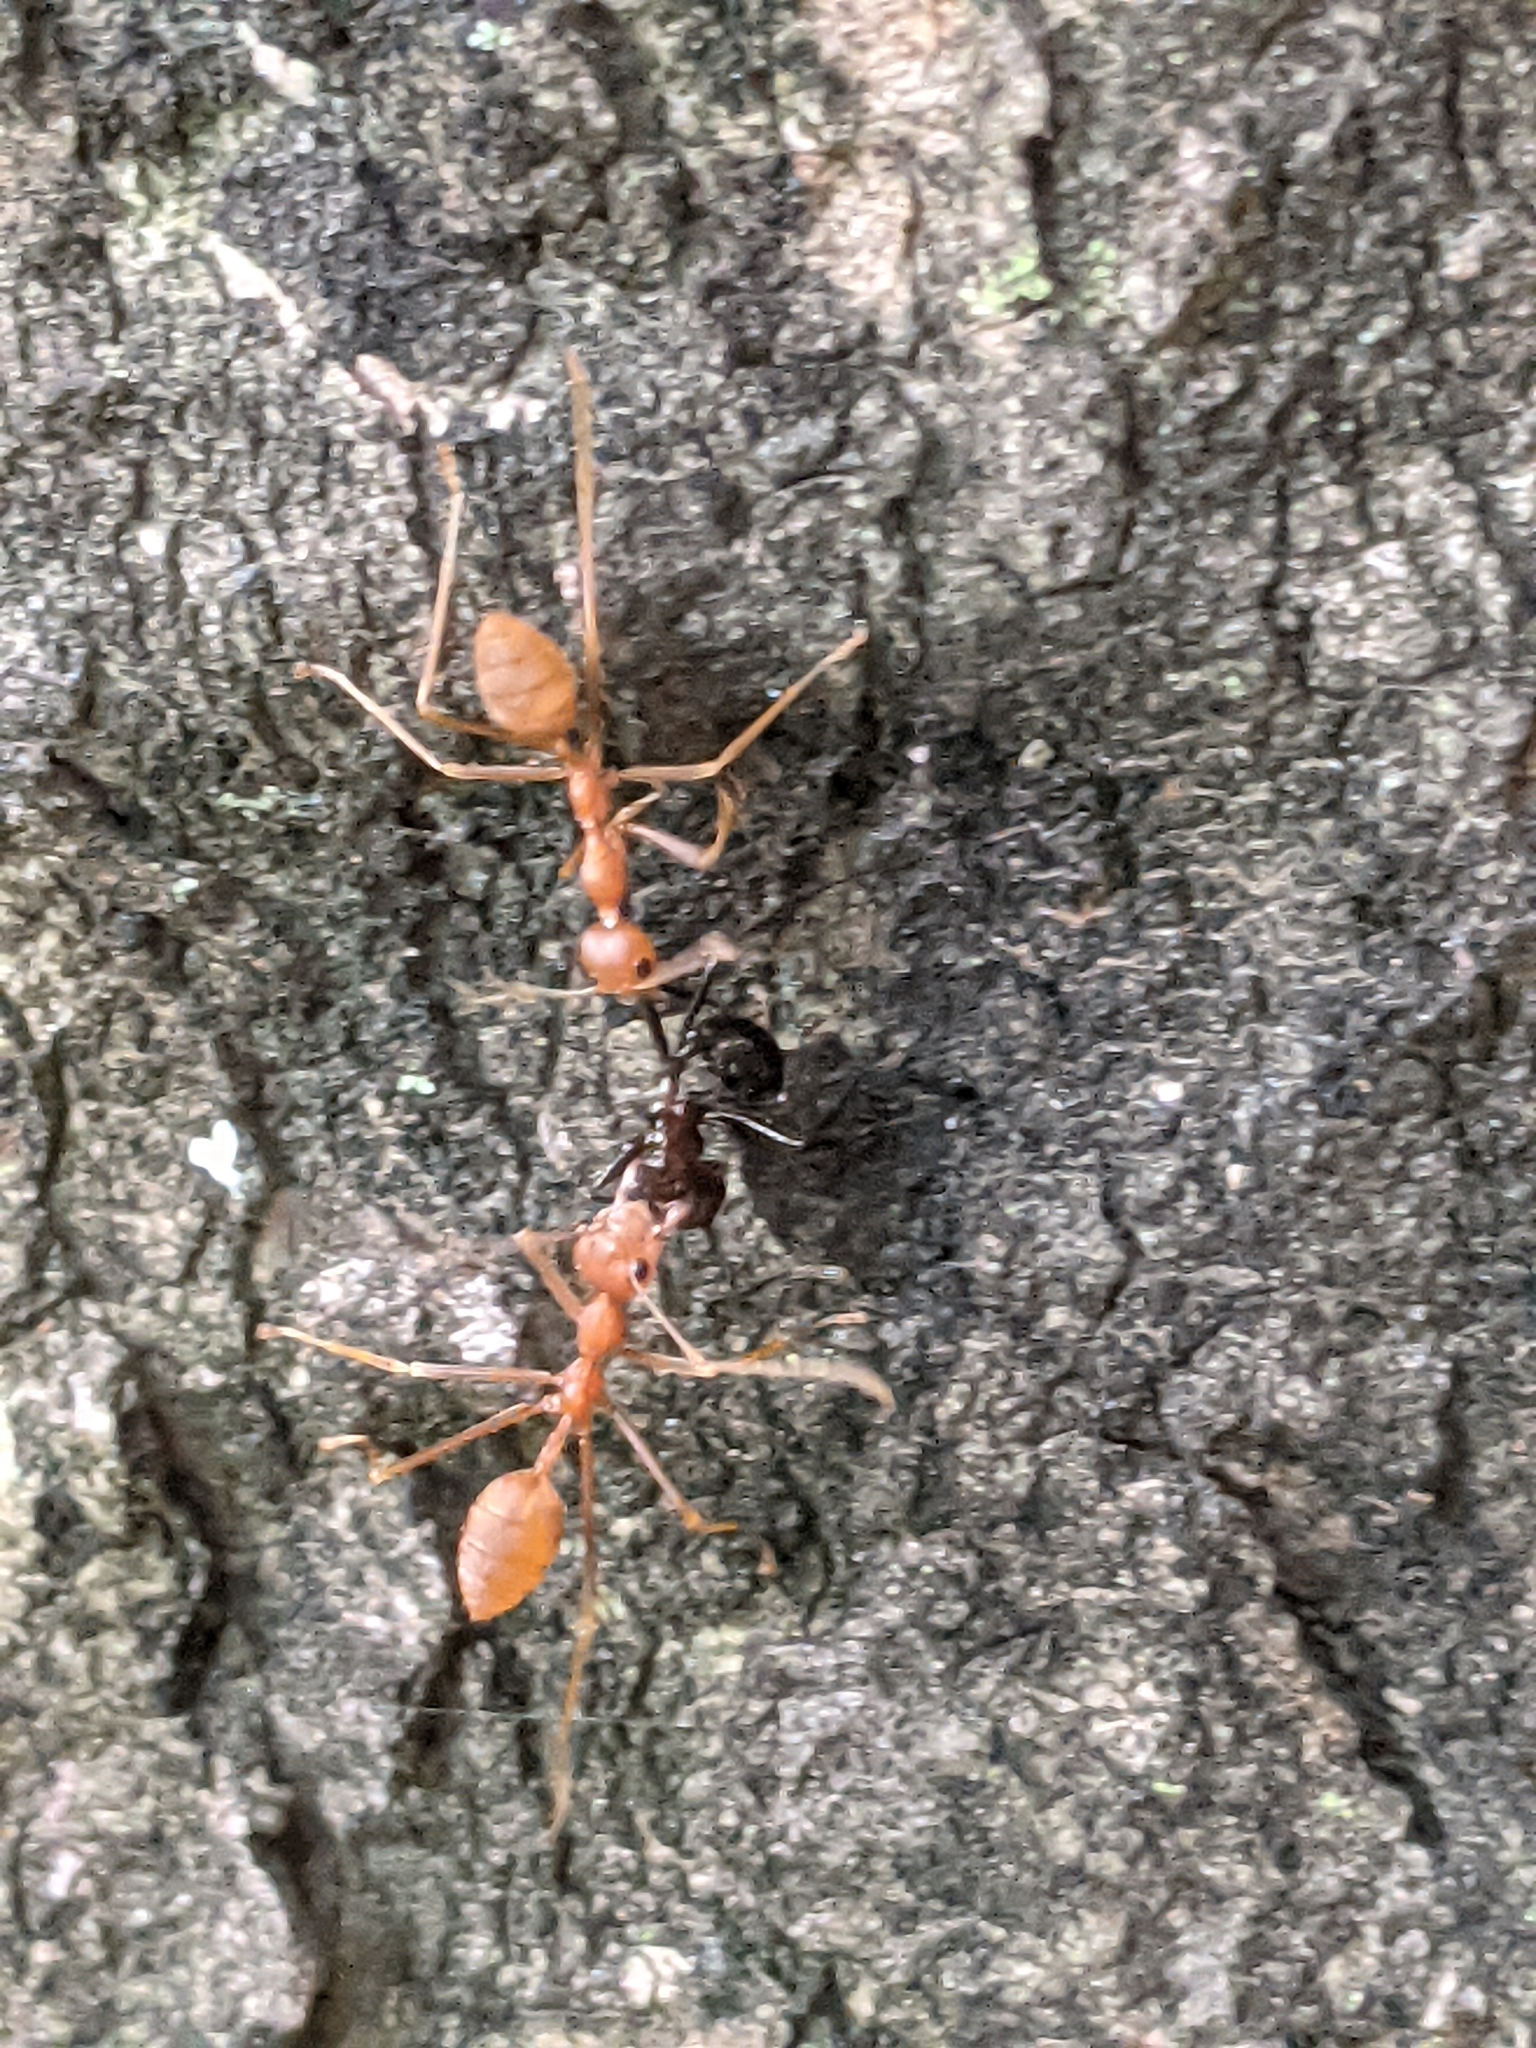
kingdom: Animalia
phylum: Arthropoda
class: Insecta
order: Hymenoptera
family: Formicidae
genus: Oecophylla
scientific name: Oecophylla smaragdina
